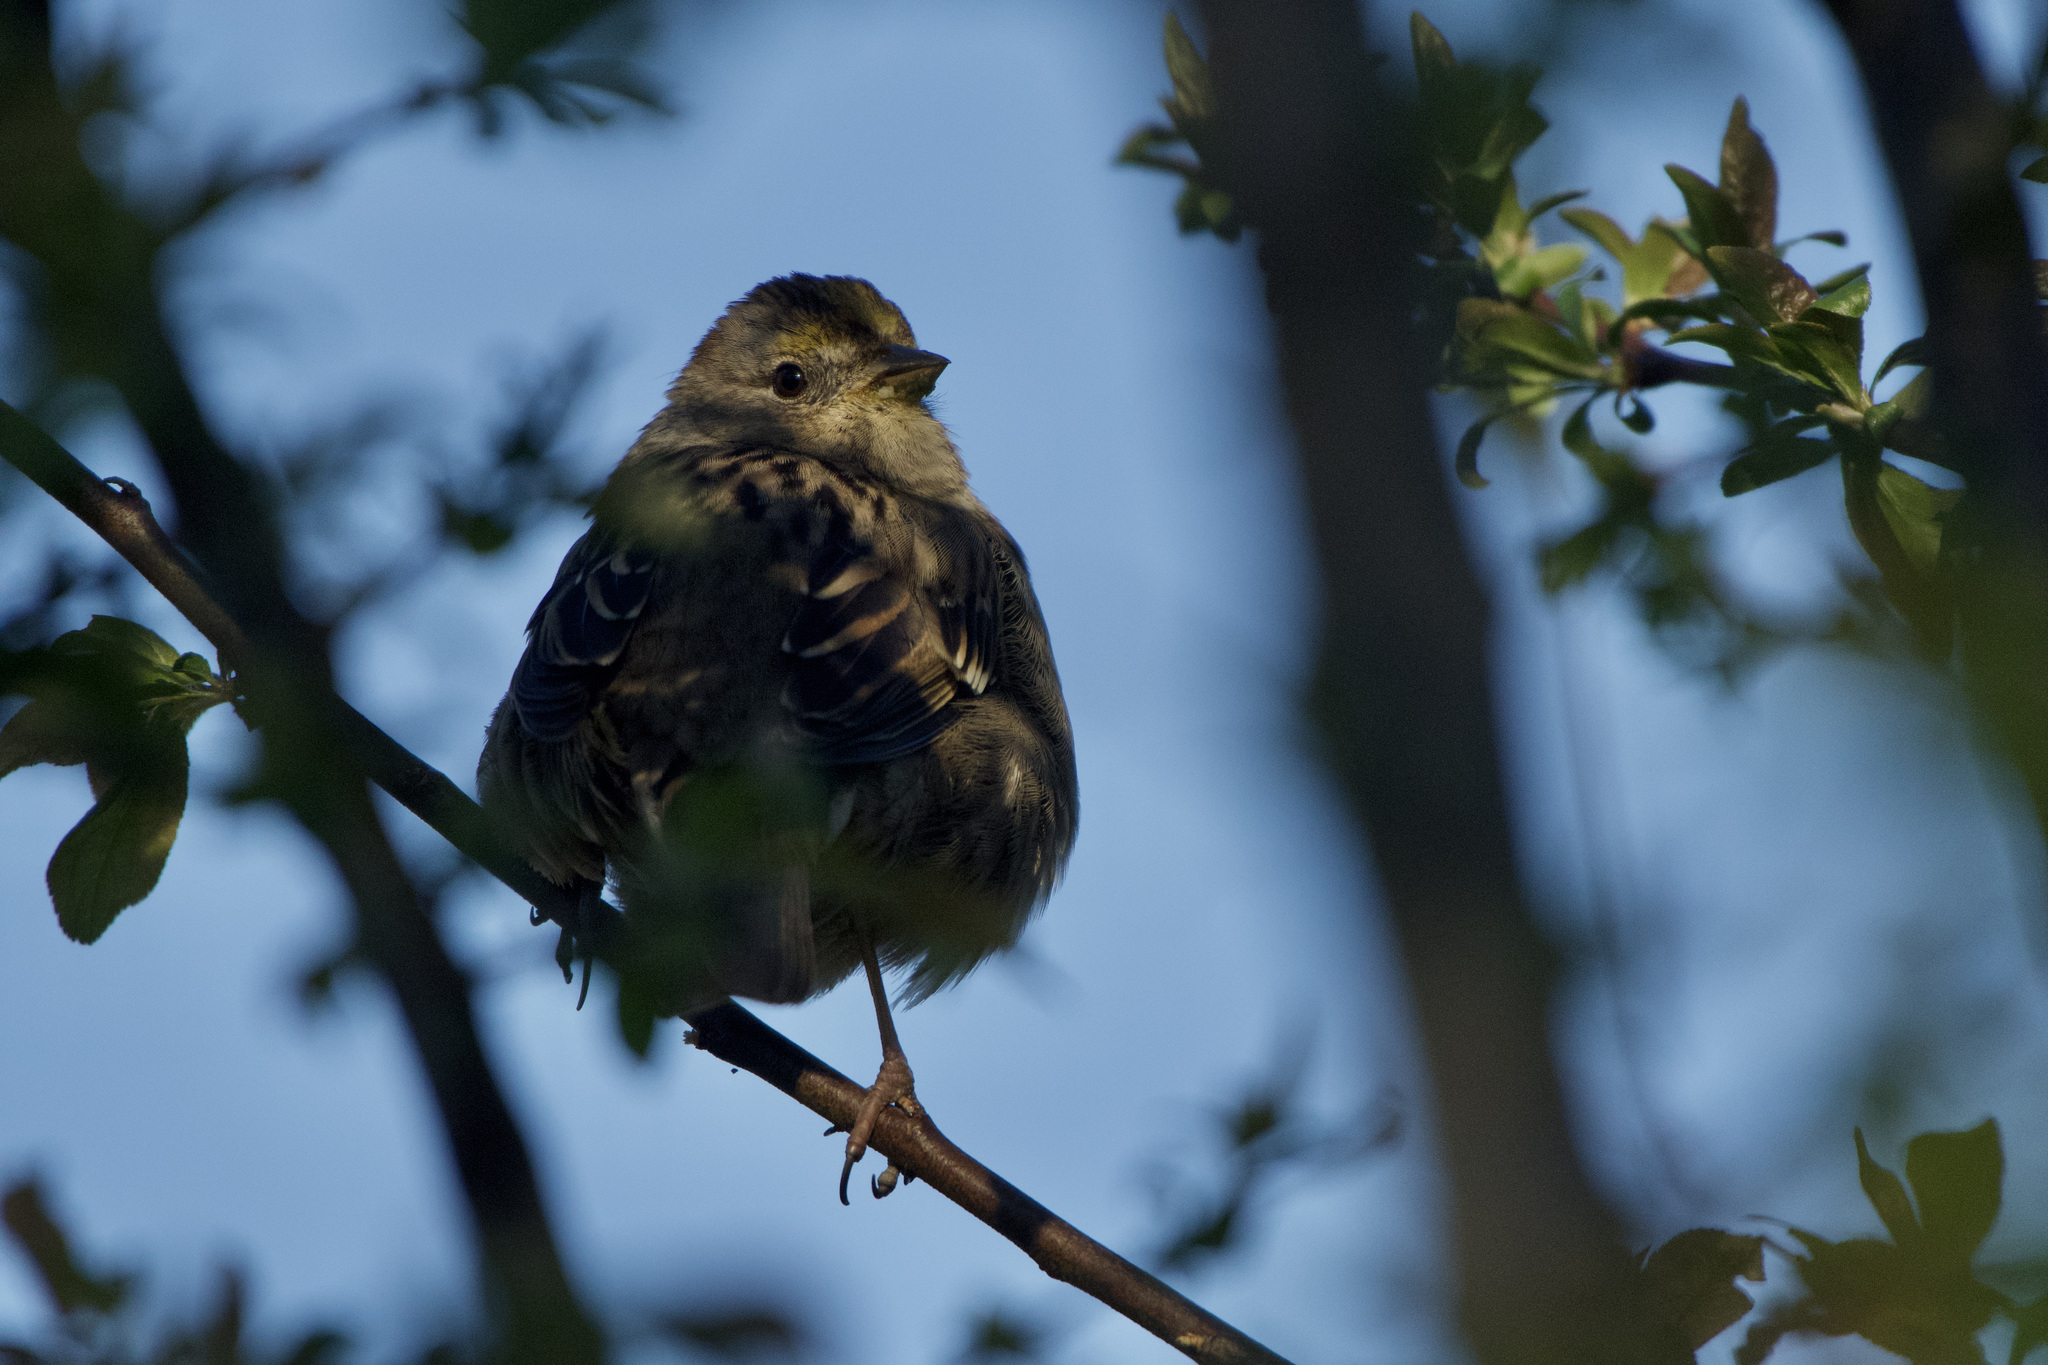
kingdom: Animalia
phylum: Chordata
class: Aves
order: Passeriformes
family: Passerellidae
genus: Zonotrichia
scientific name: Zonotrichia atricapilla
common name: Golden-crowned sparrow
